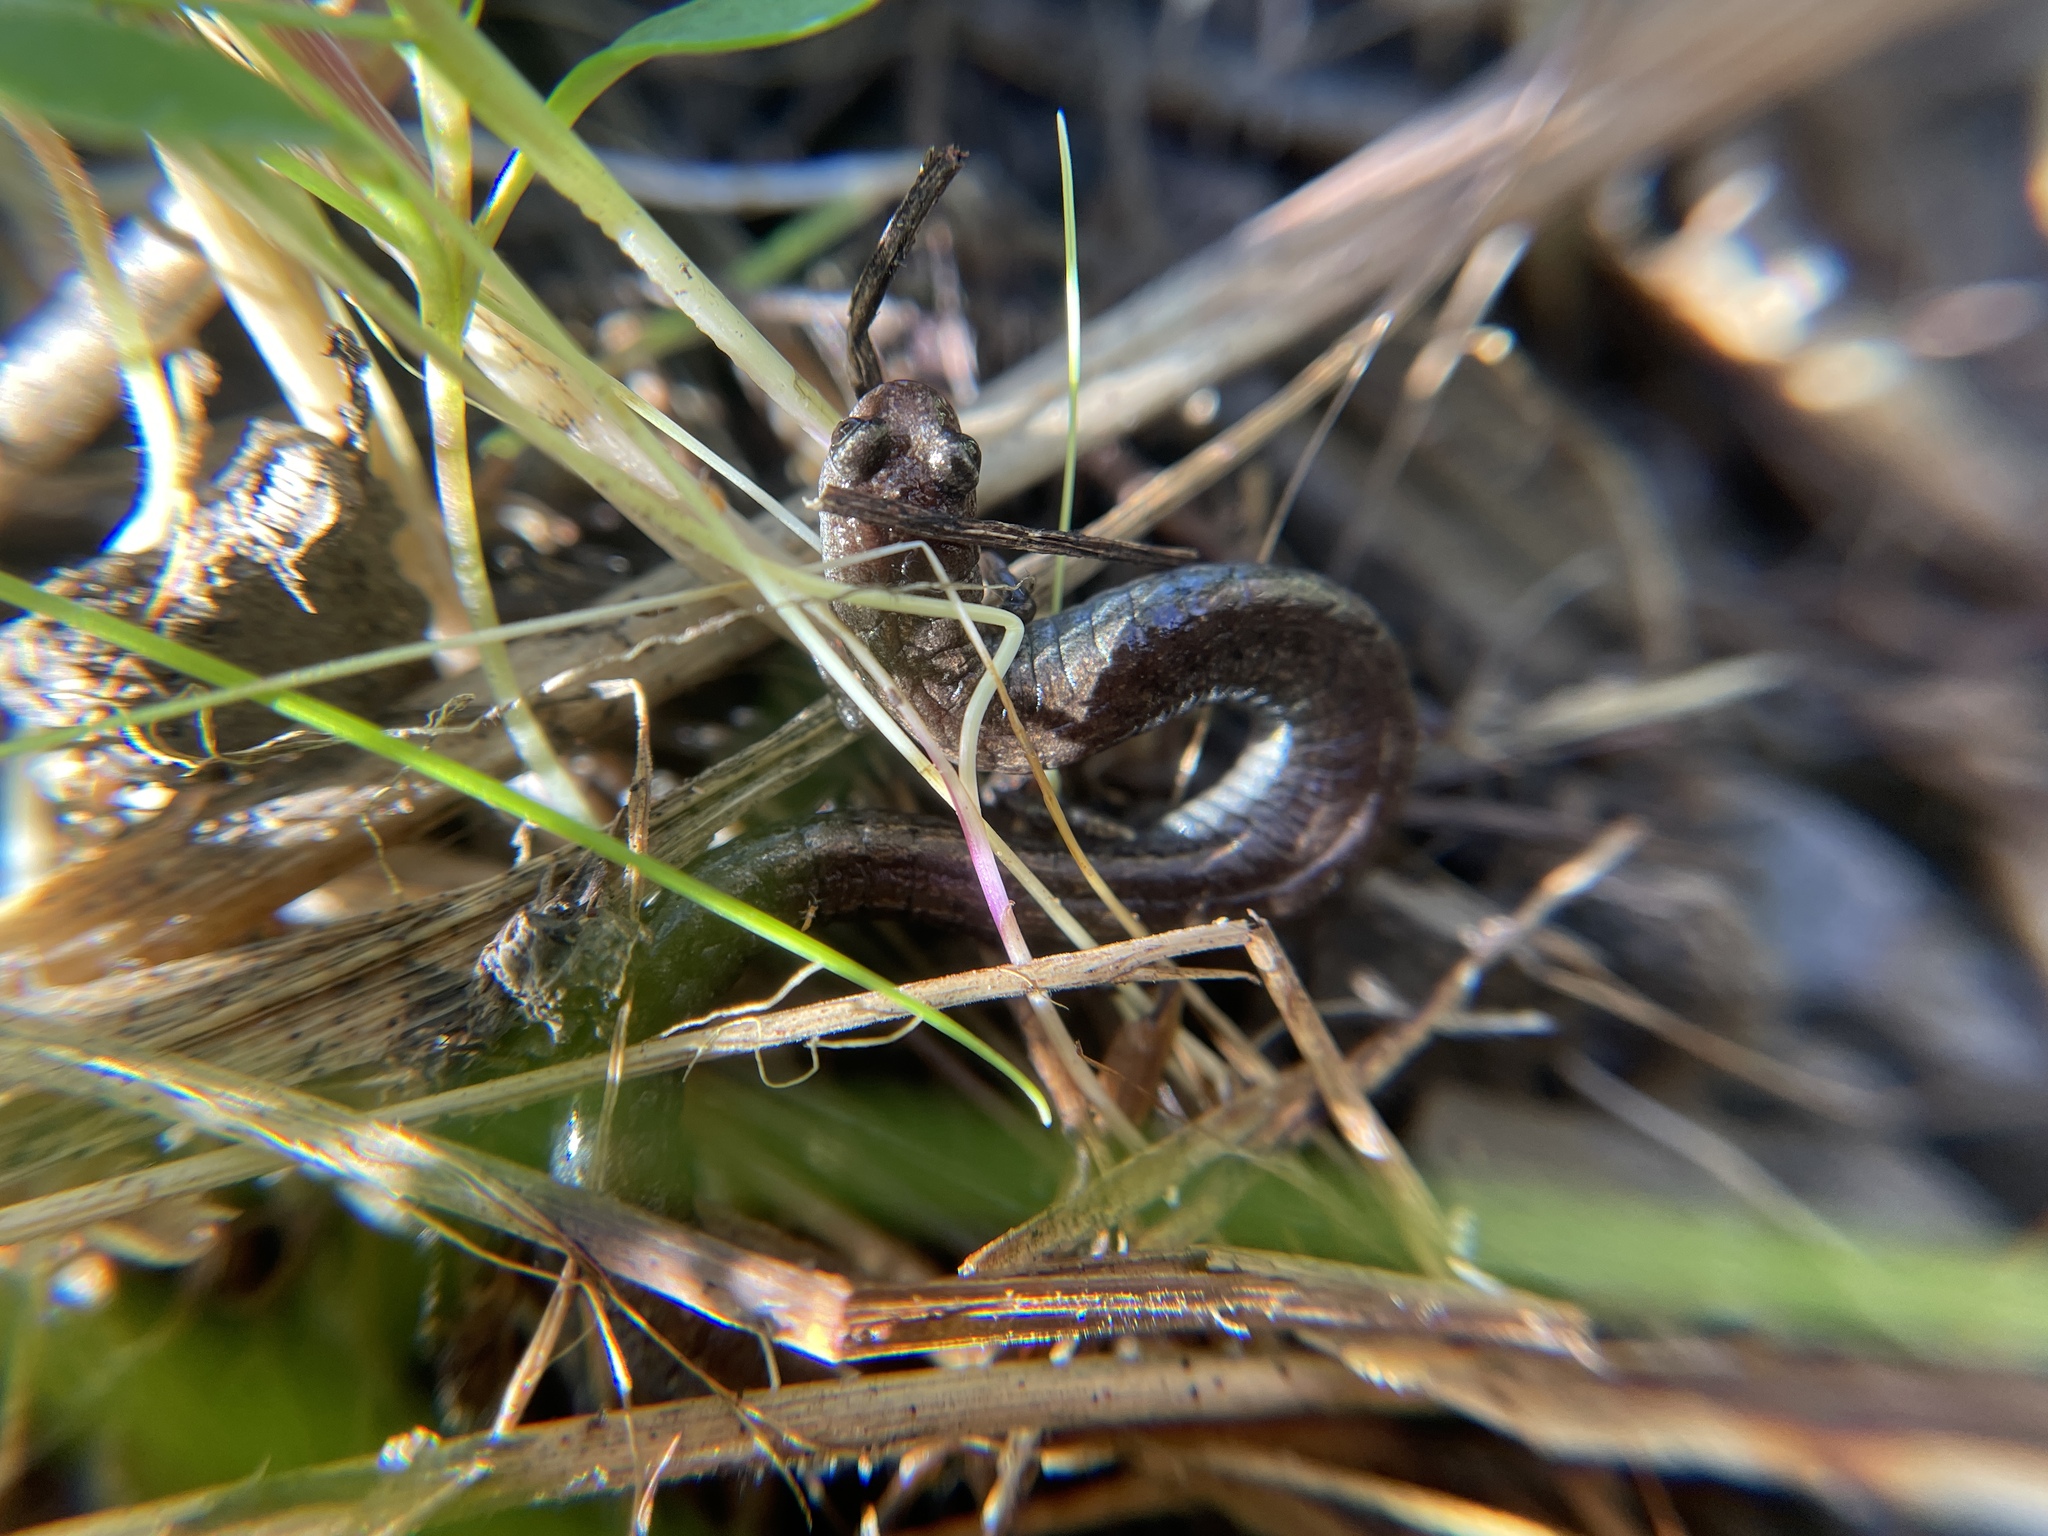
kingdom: Animalia
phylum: Chordata
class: Amphibia
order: Caudata
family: Plethodontidae
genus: Batrachoseps
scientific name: Batrachoseps attenuatus
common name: California slender salamander
